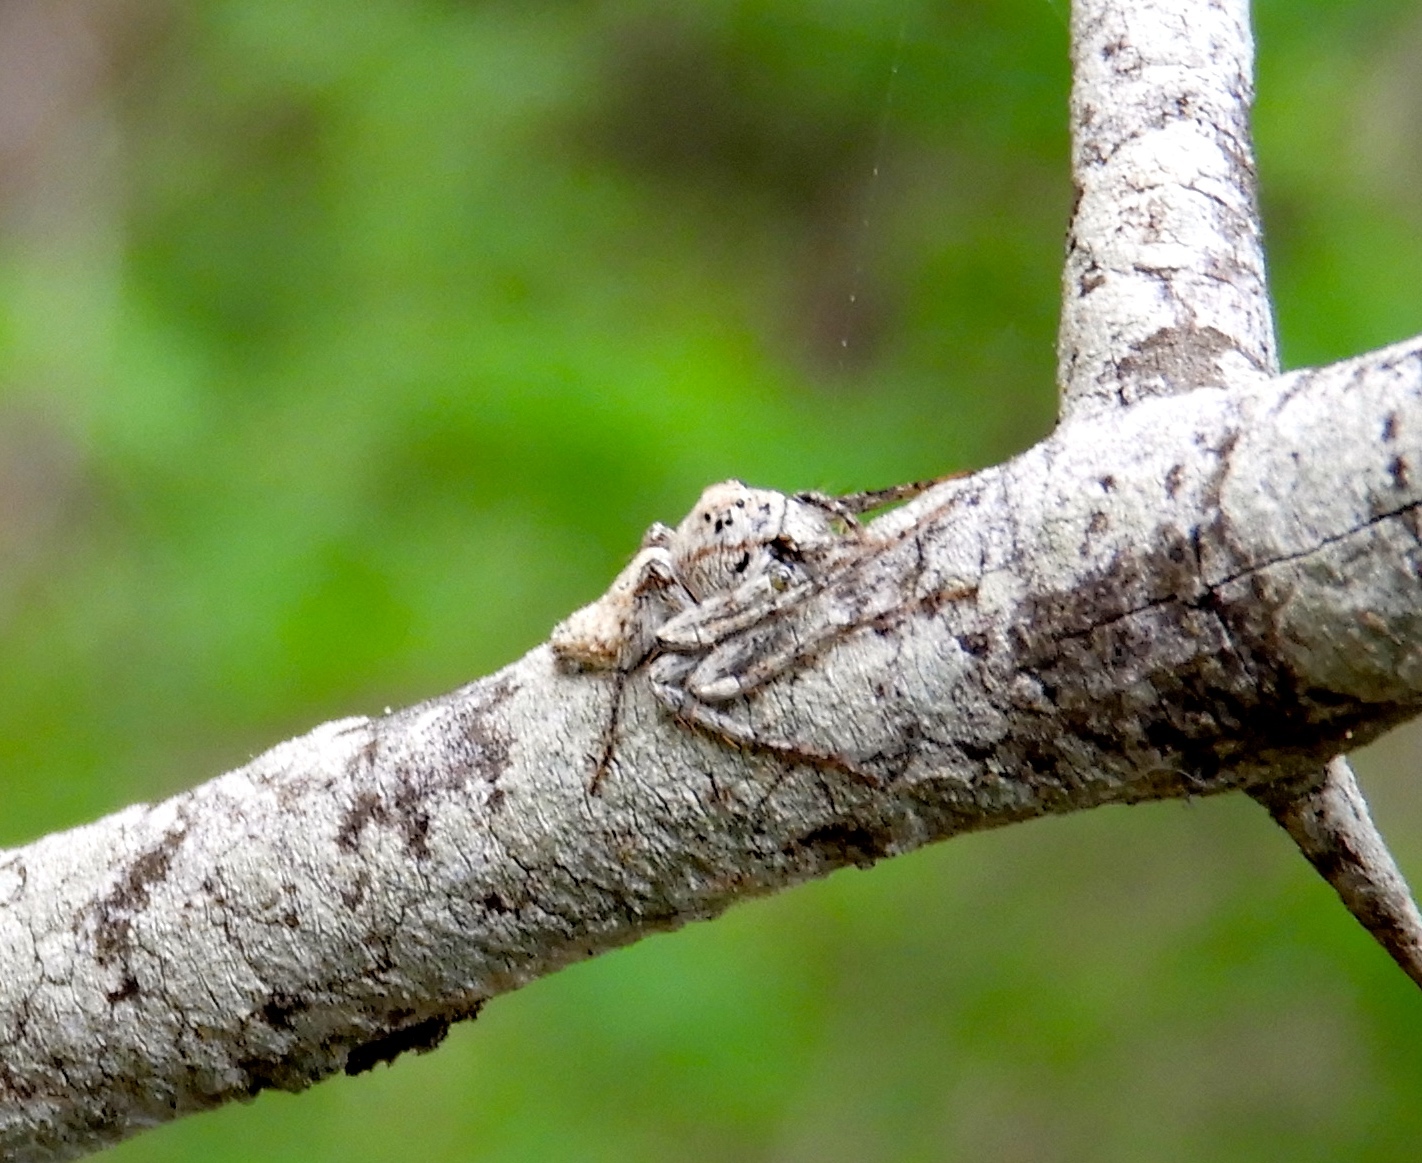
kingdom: Animalia
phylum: Arthropoda
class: Arachnida
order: Araneae
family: Oxyopidae
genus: Hamataliwa
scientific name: Hamataliwa
